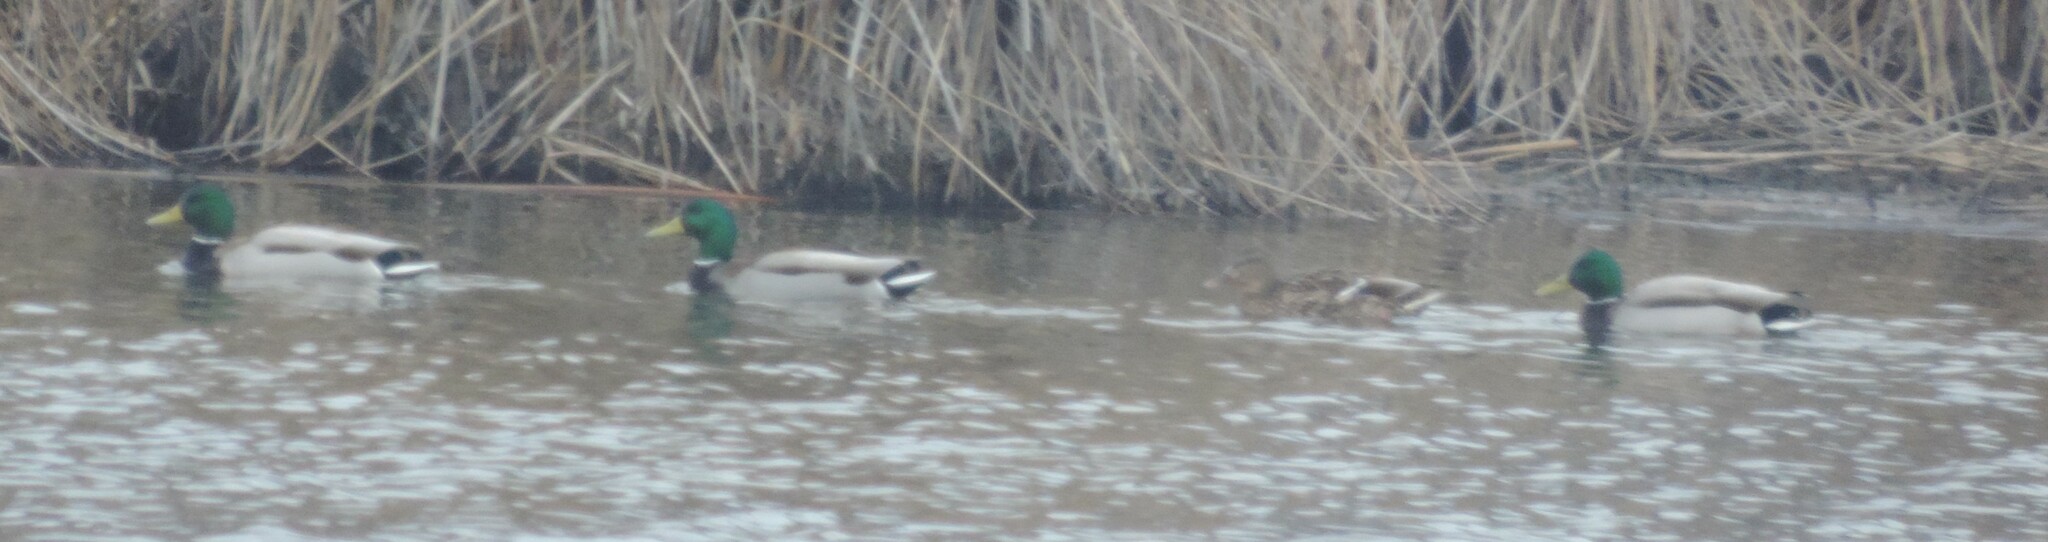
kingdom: Animalia
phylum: Chordata
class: Aves
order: Anseriformes
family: Anatidae
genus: Anas
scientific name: Anas platyrhynchos
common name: Mallard
